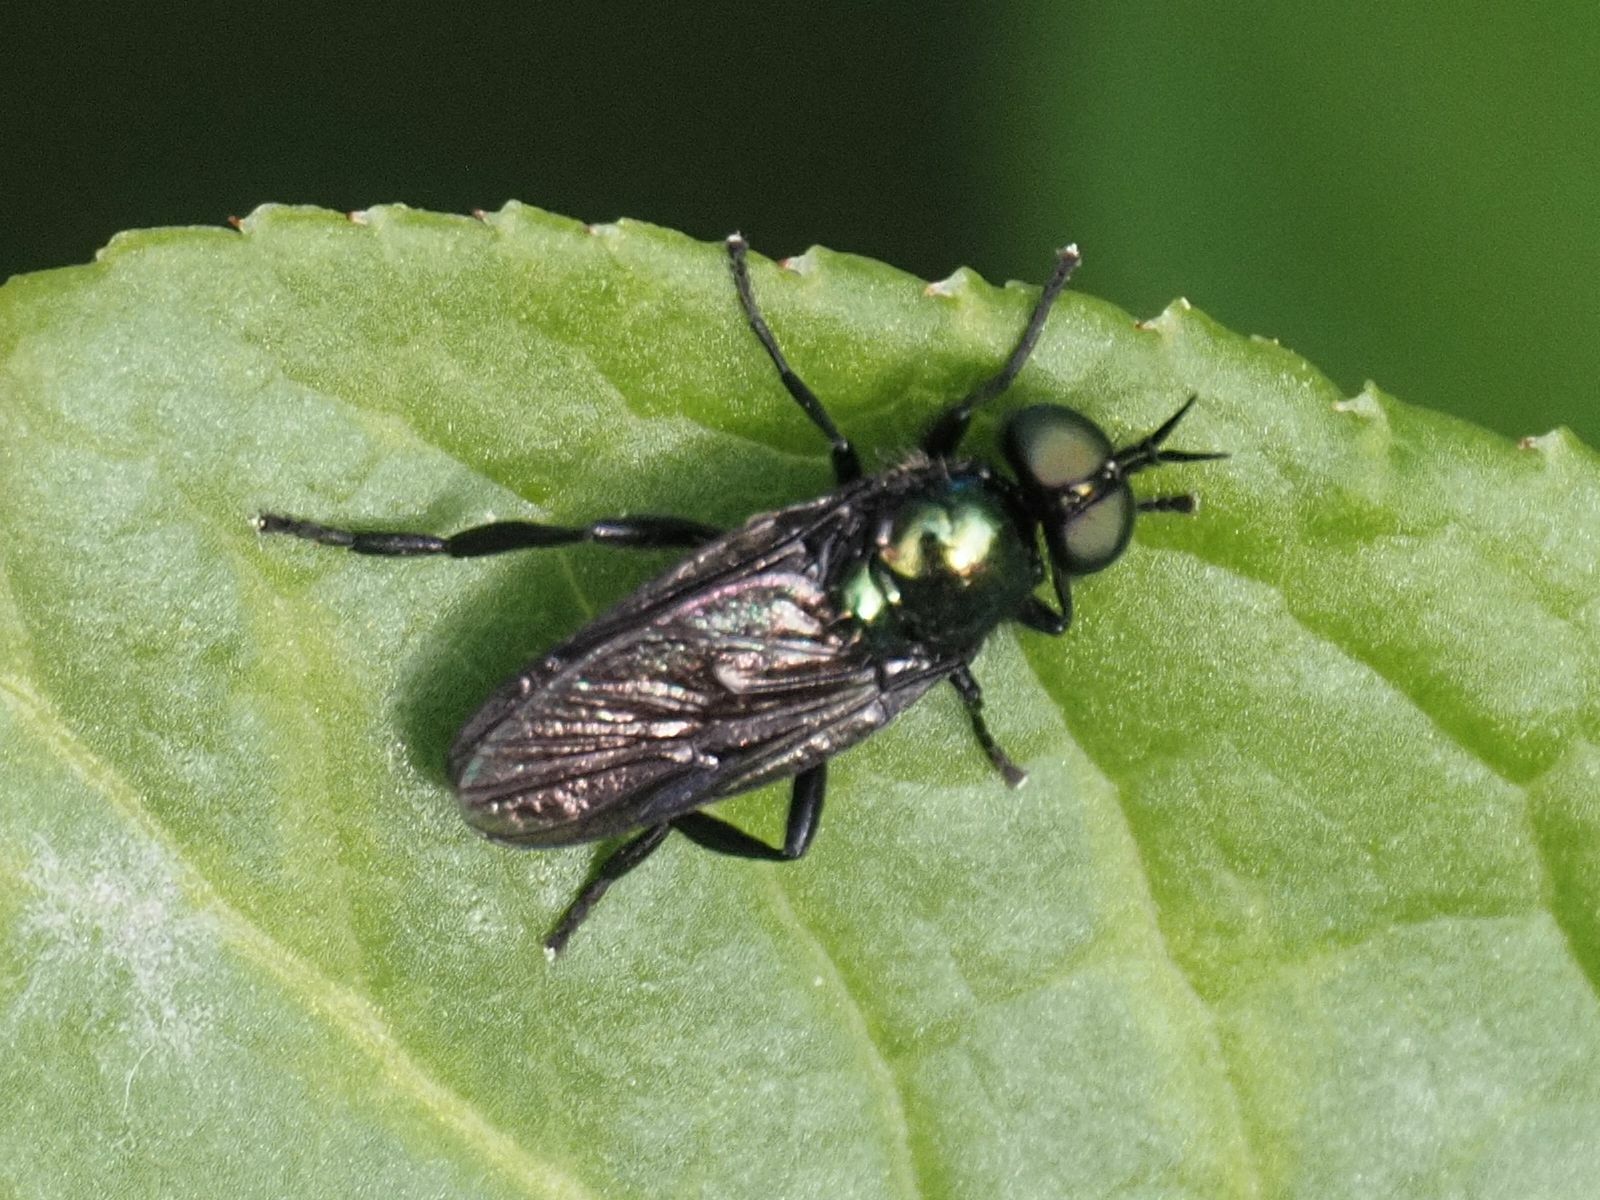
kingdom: Animalia
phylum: Arthropoda
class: Insecta
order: Diptera
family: Stratiomyidae
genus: Actina
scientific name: Actina chalybea
